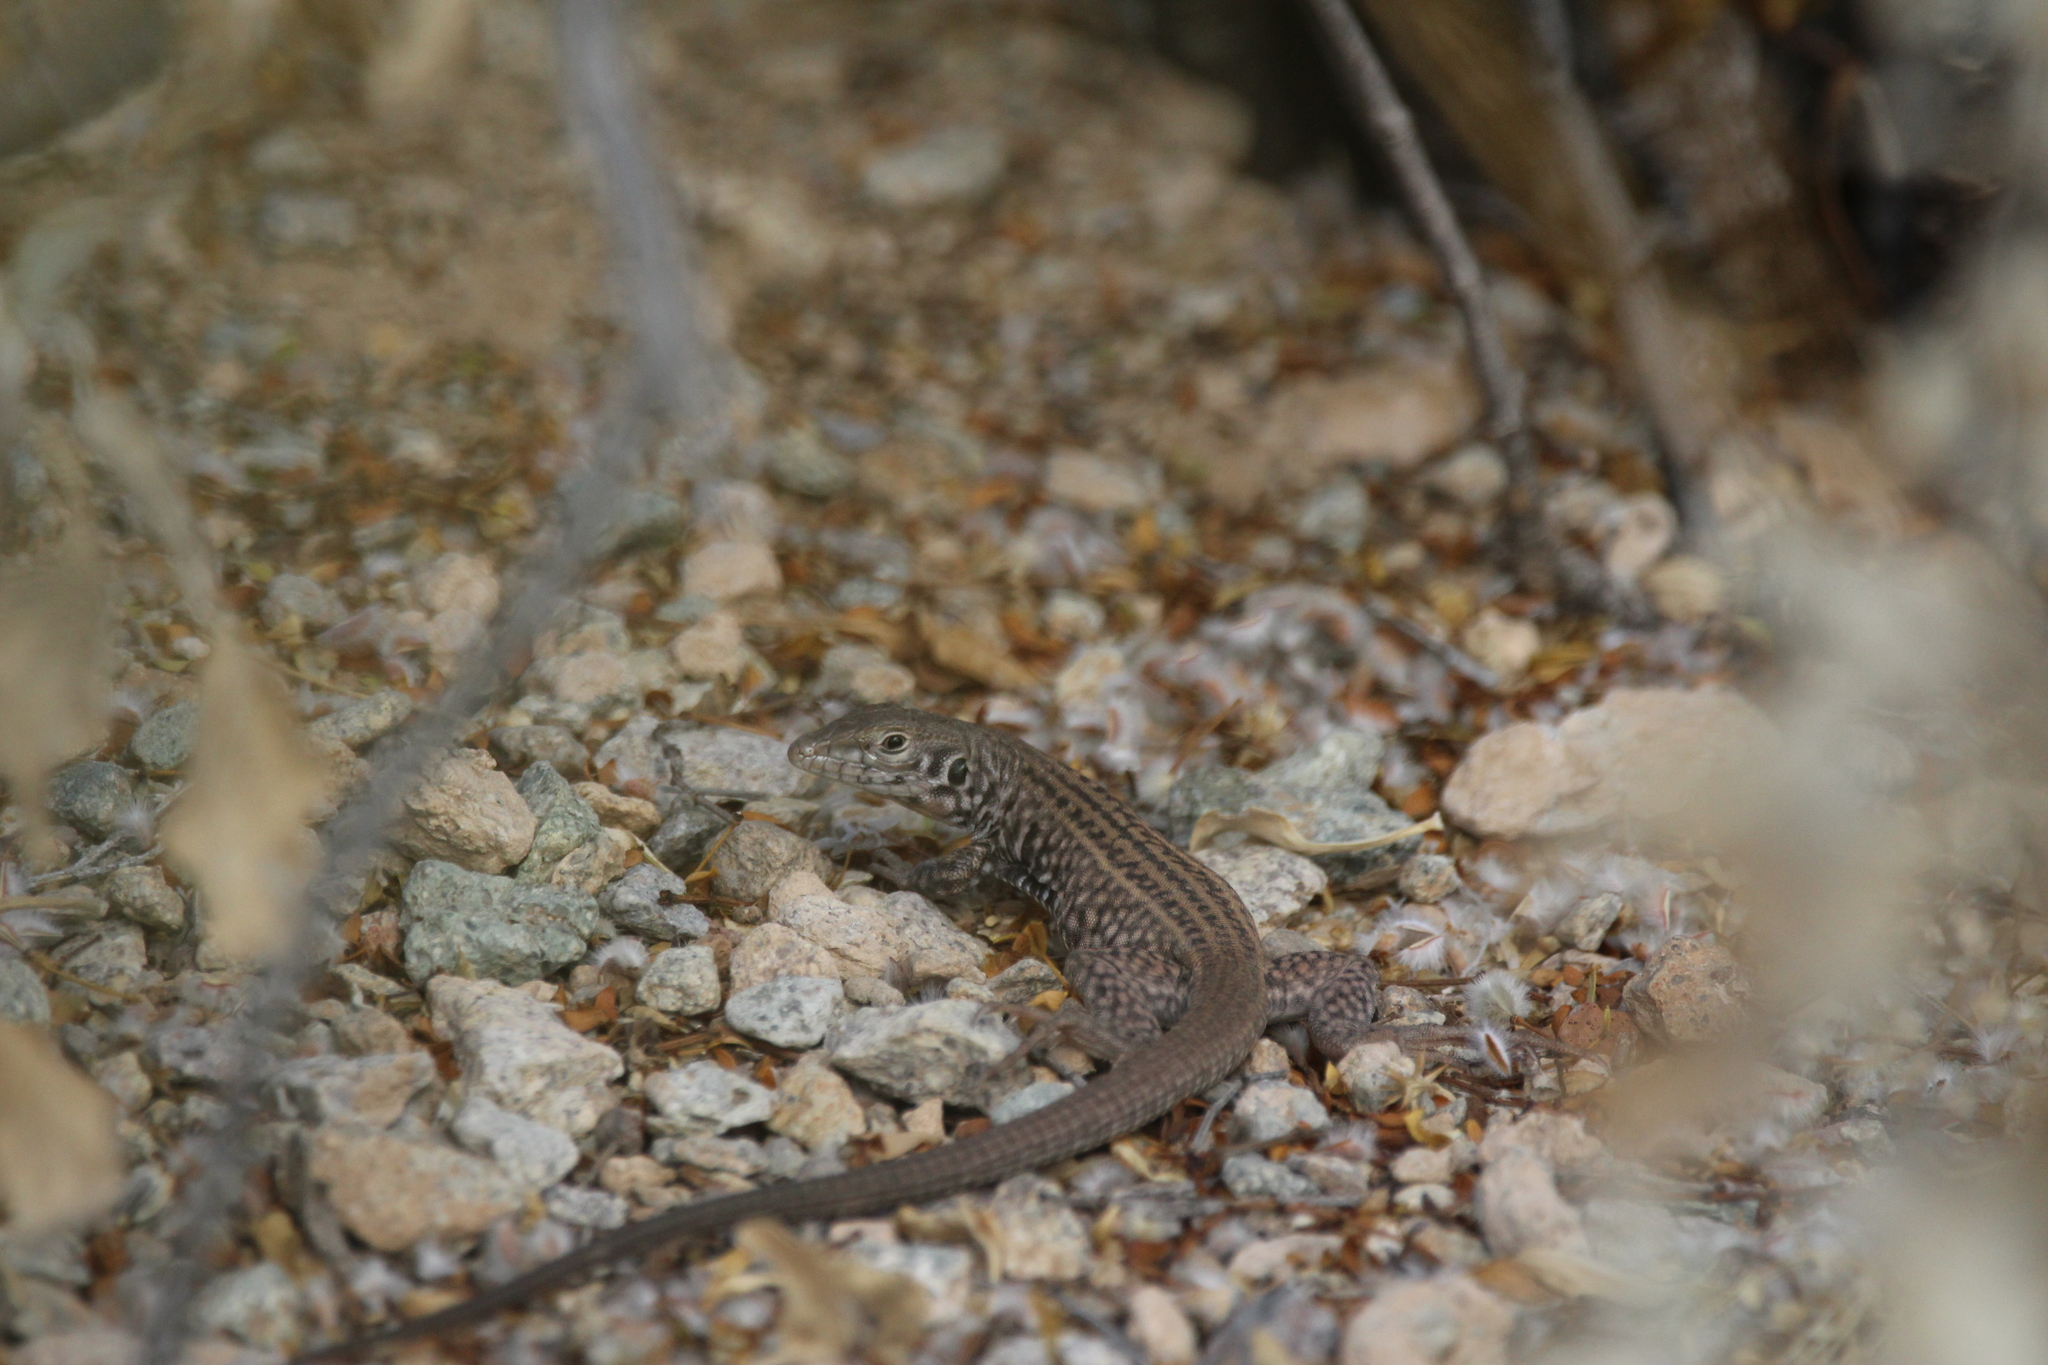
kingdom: Animalia
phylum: Chordata
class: Squamata
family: Teiidae
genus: Aspidoscelis
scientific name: Aspidoscelis tigris
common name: Tiger whiptail
